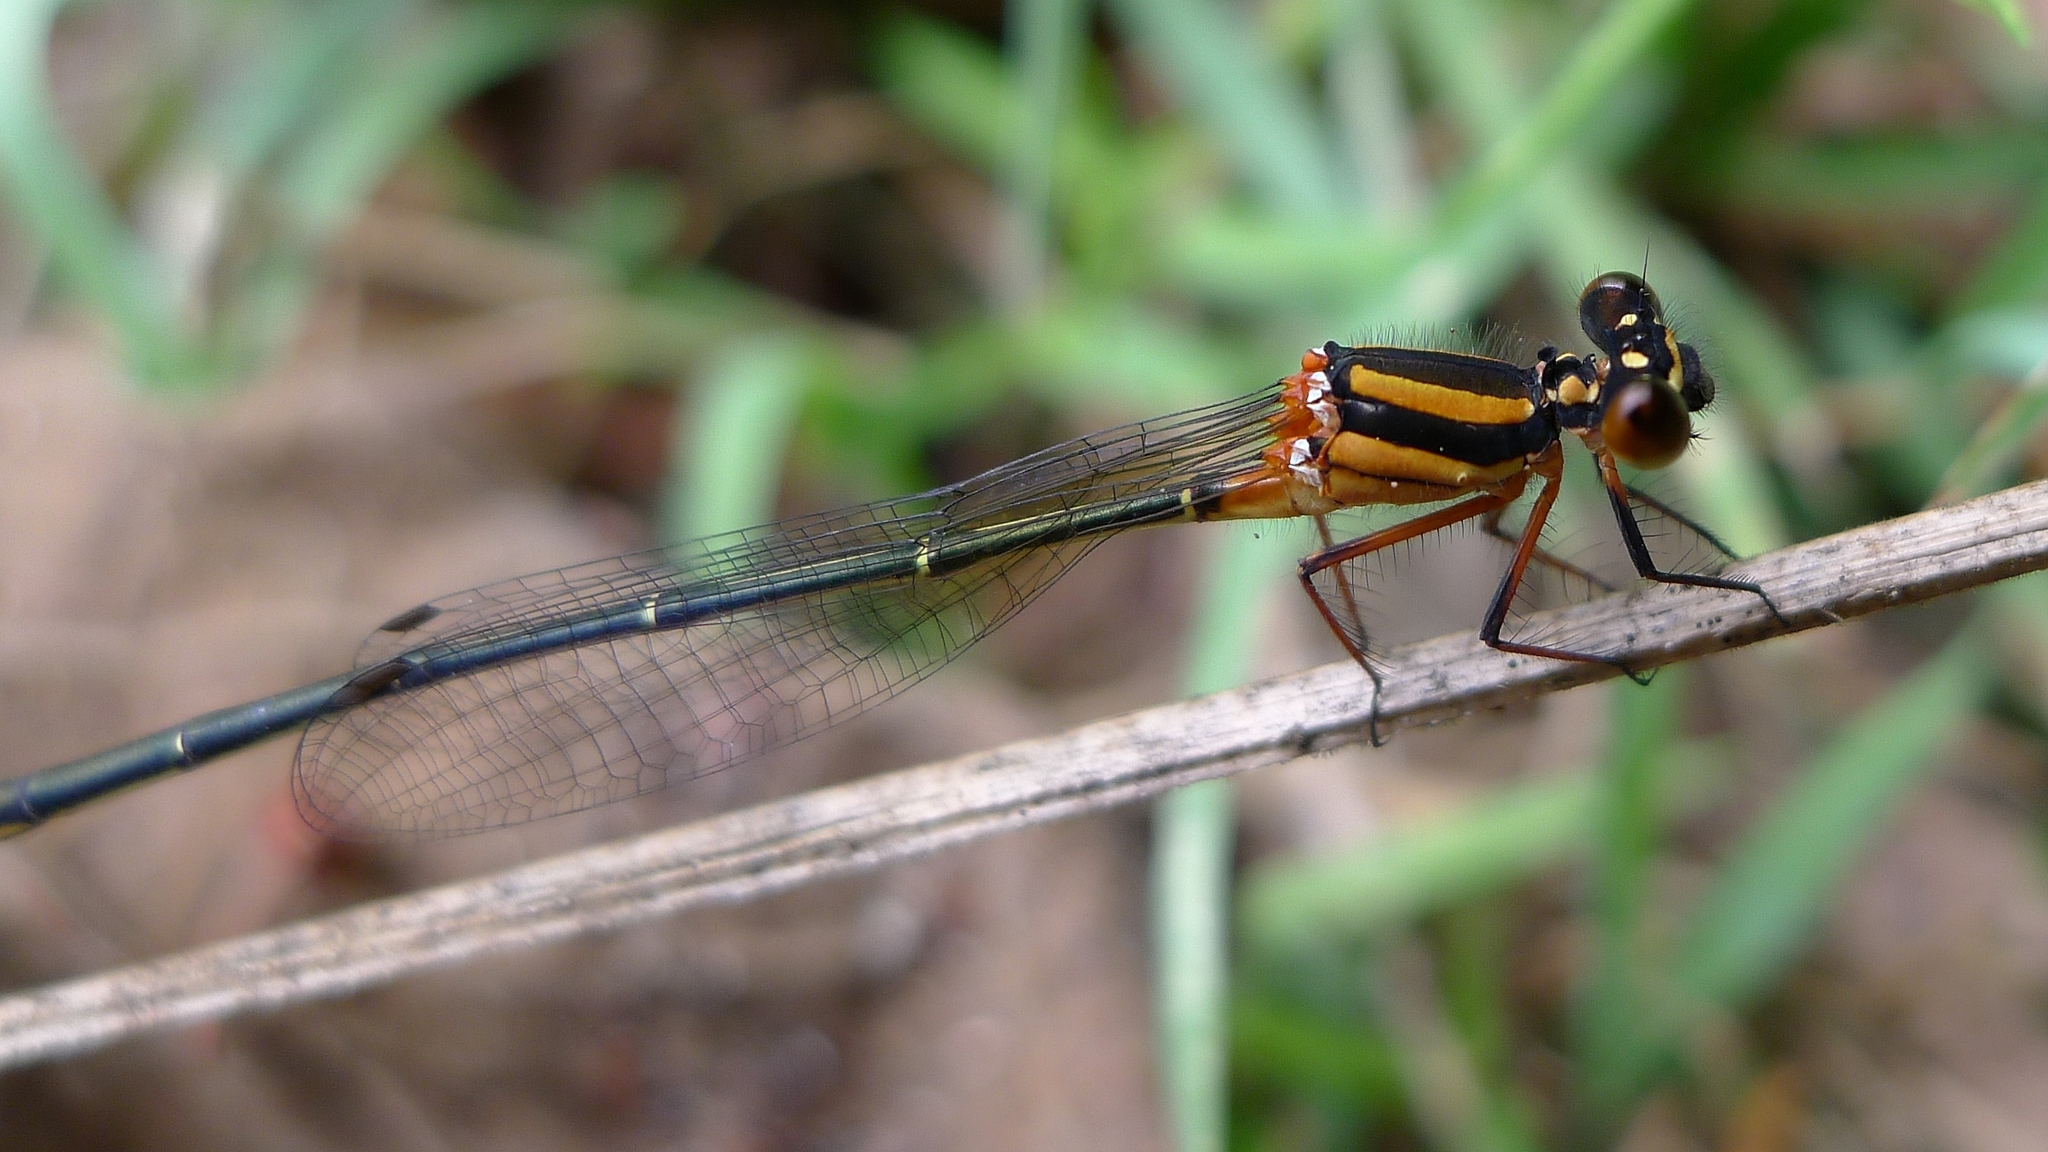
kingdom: Animalia
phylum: Arthropoda
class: Insecta
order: Odonata
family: Platycnemididae
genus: Nososticta
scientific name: Nososticta solida
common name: Orange threadtail
